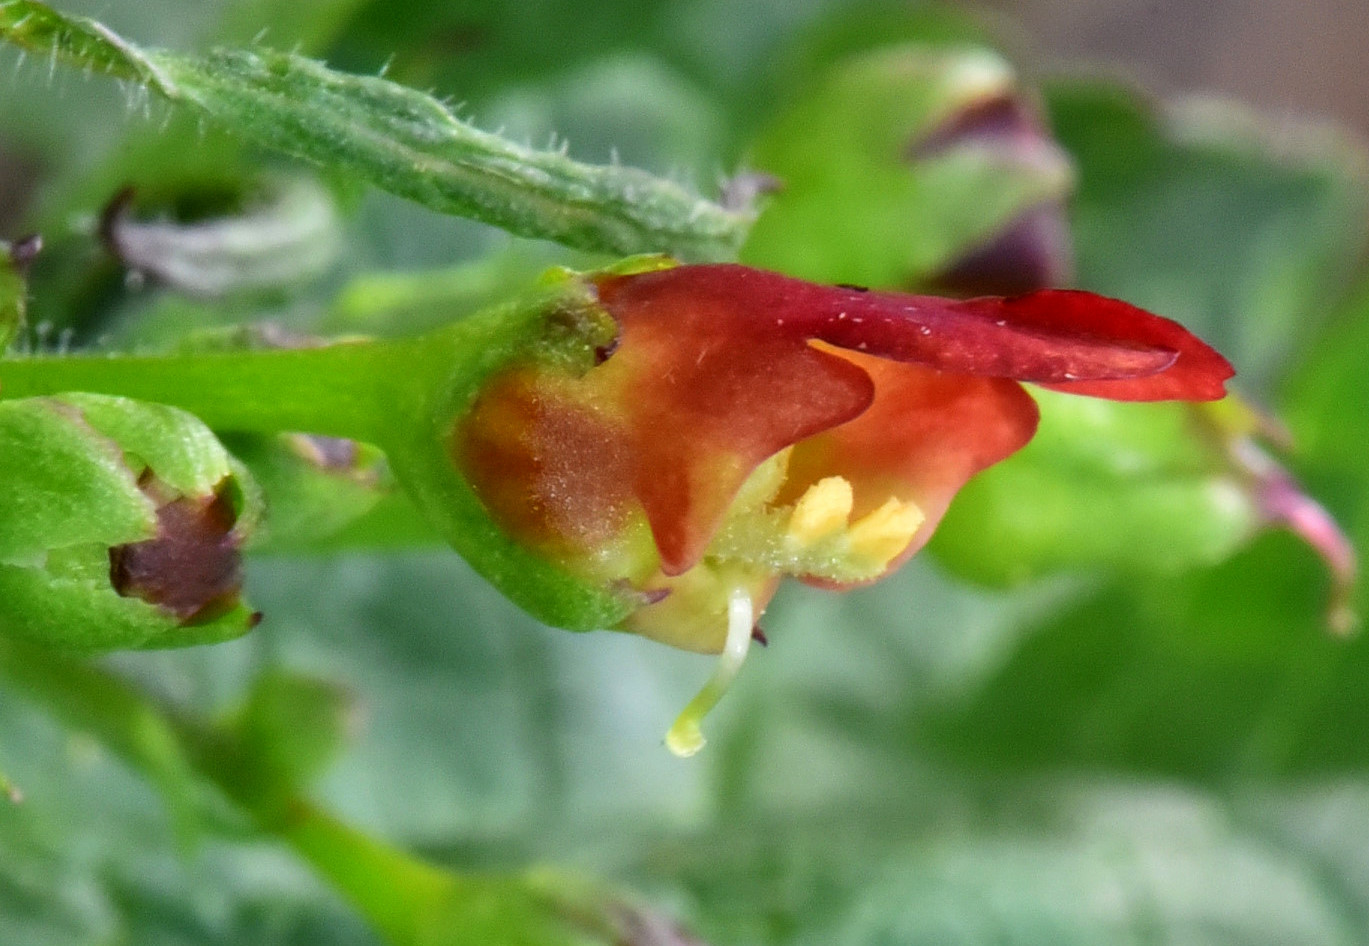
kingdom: Plantae
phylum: Tracheophyta
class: Magnoliopsida
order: Lamiales
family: Scrophulariaceae
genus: Scrophularia
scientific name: Scrophularia californica
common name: California figwort
